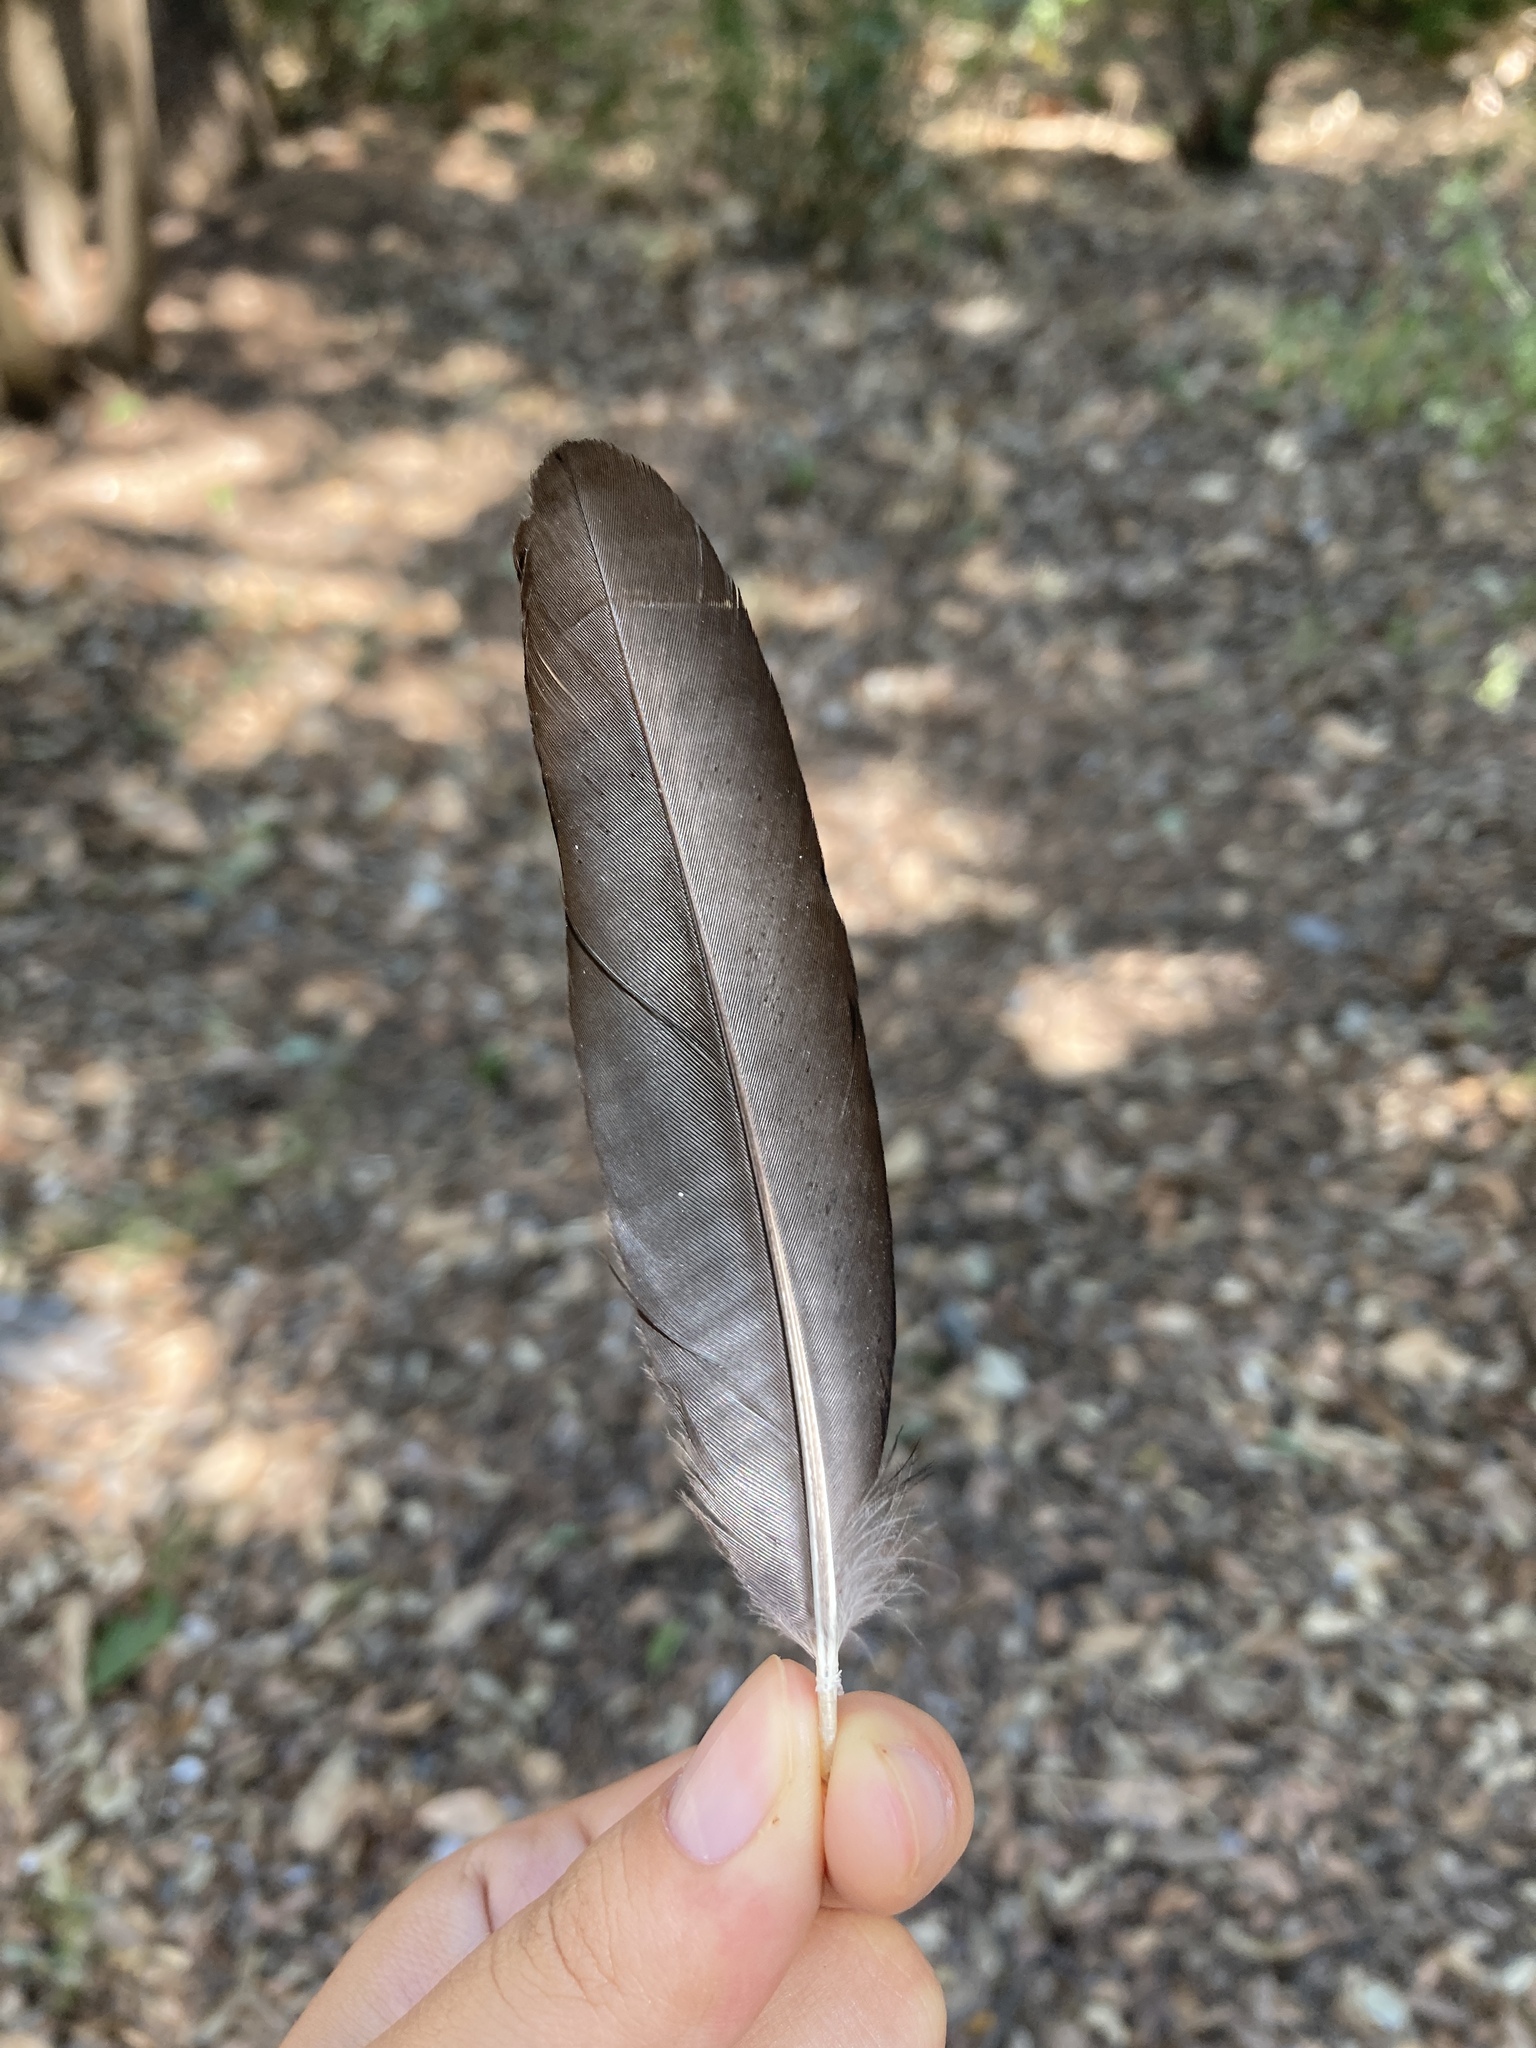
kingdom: Animalia
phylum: Chordata
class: Aves
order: Passeriformes
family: Corvidae
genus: Pica
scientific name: Pica pica
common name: Eurasian magpie
